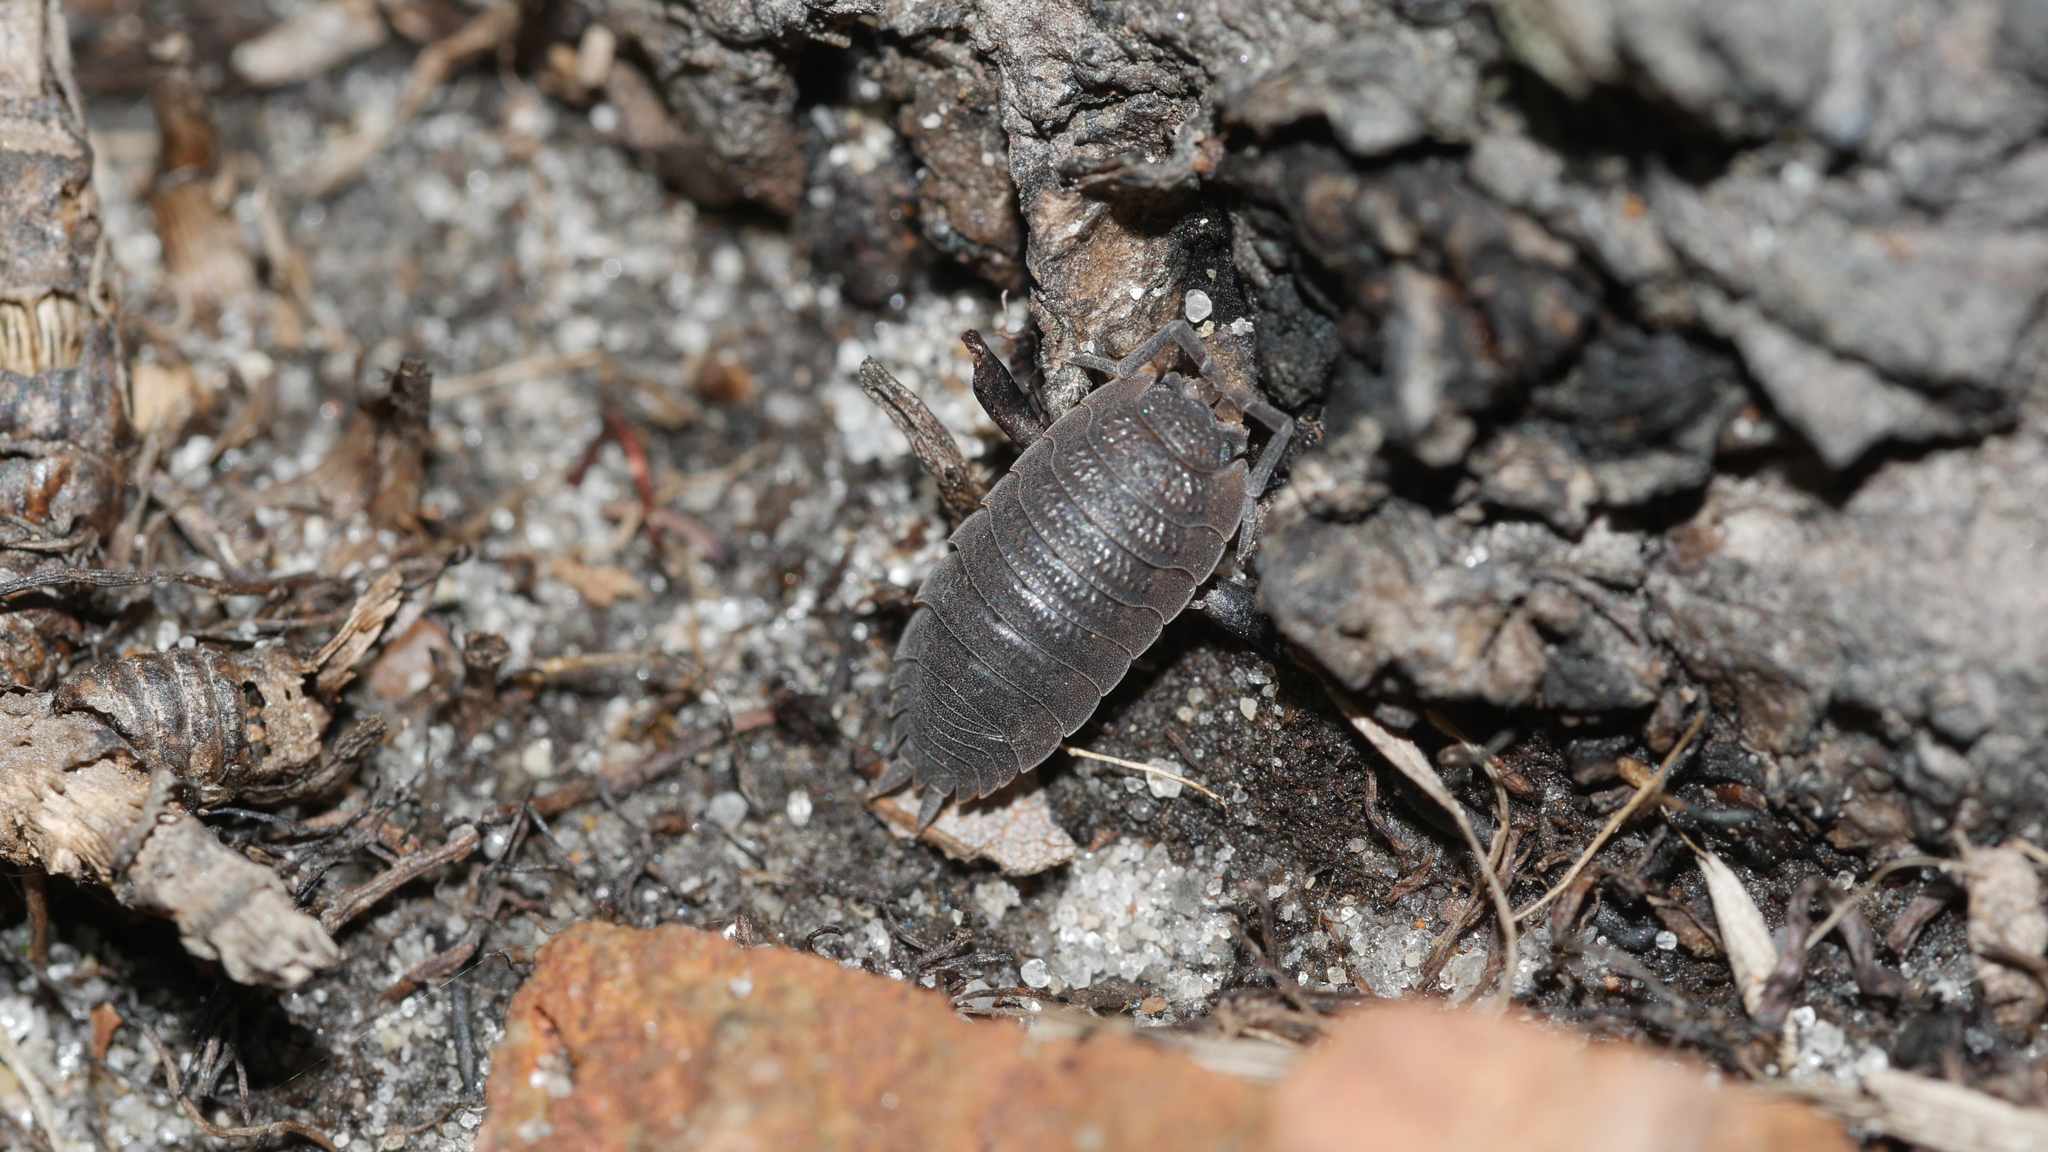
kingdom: Animalia
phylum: Arthropoda
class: Malacostraca
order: Isopoda
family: Porcellionidae
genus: Porcellio
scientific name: Porcellio scaber
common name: Common rough woodlouse
